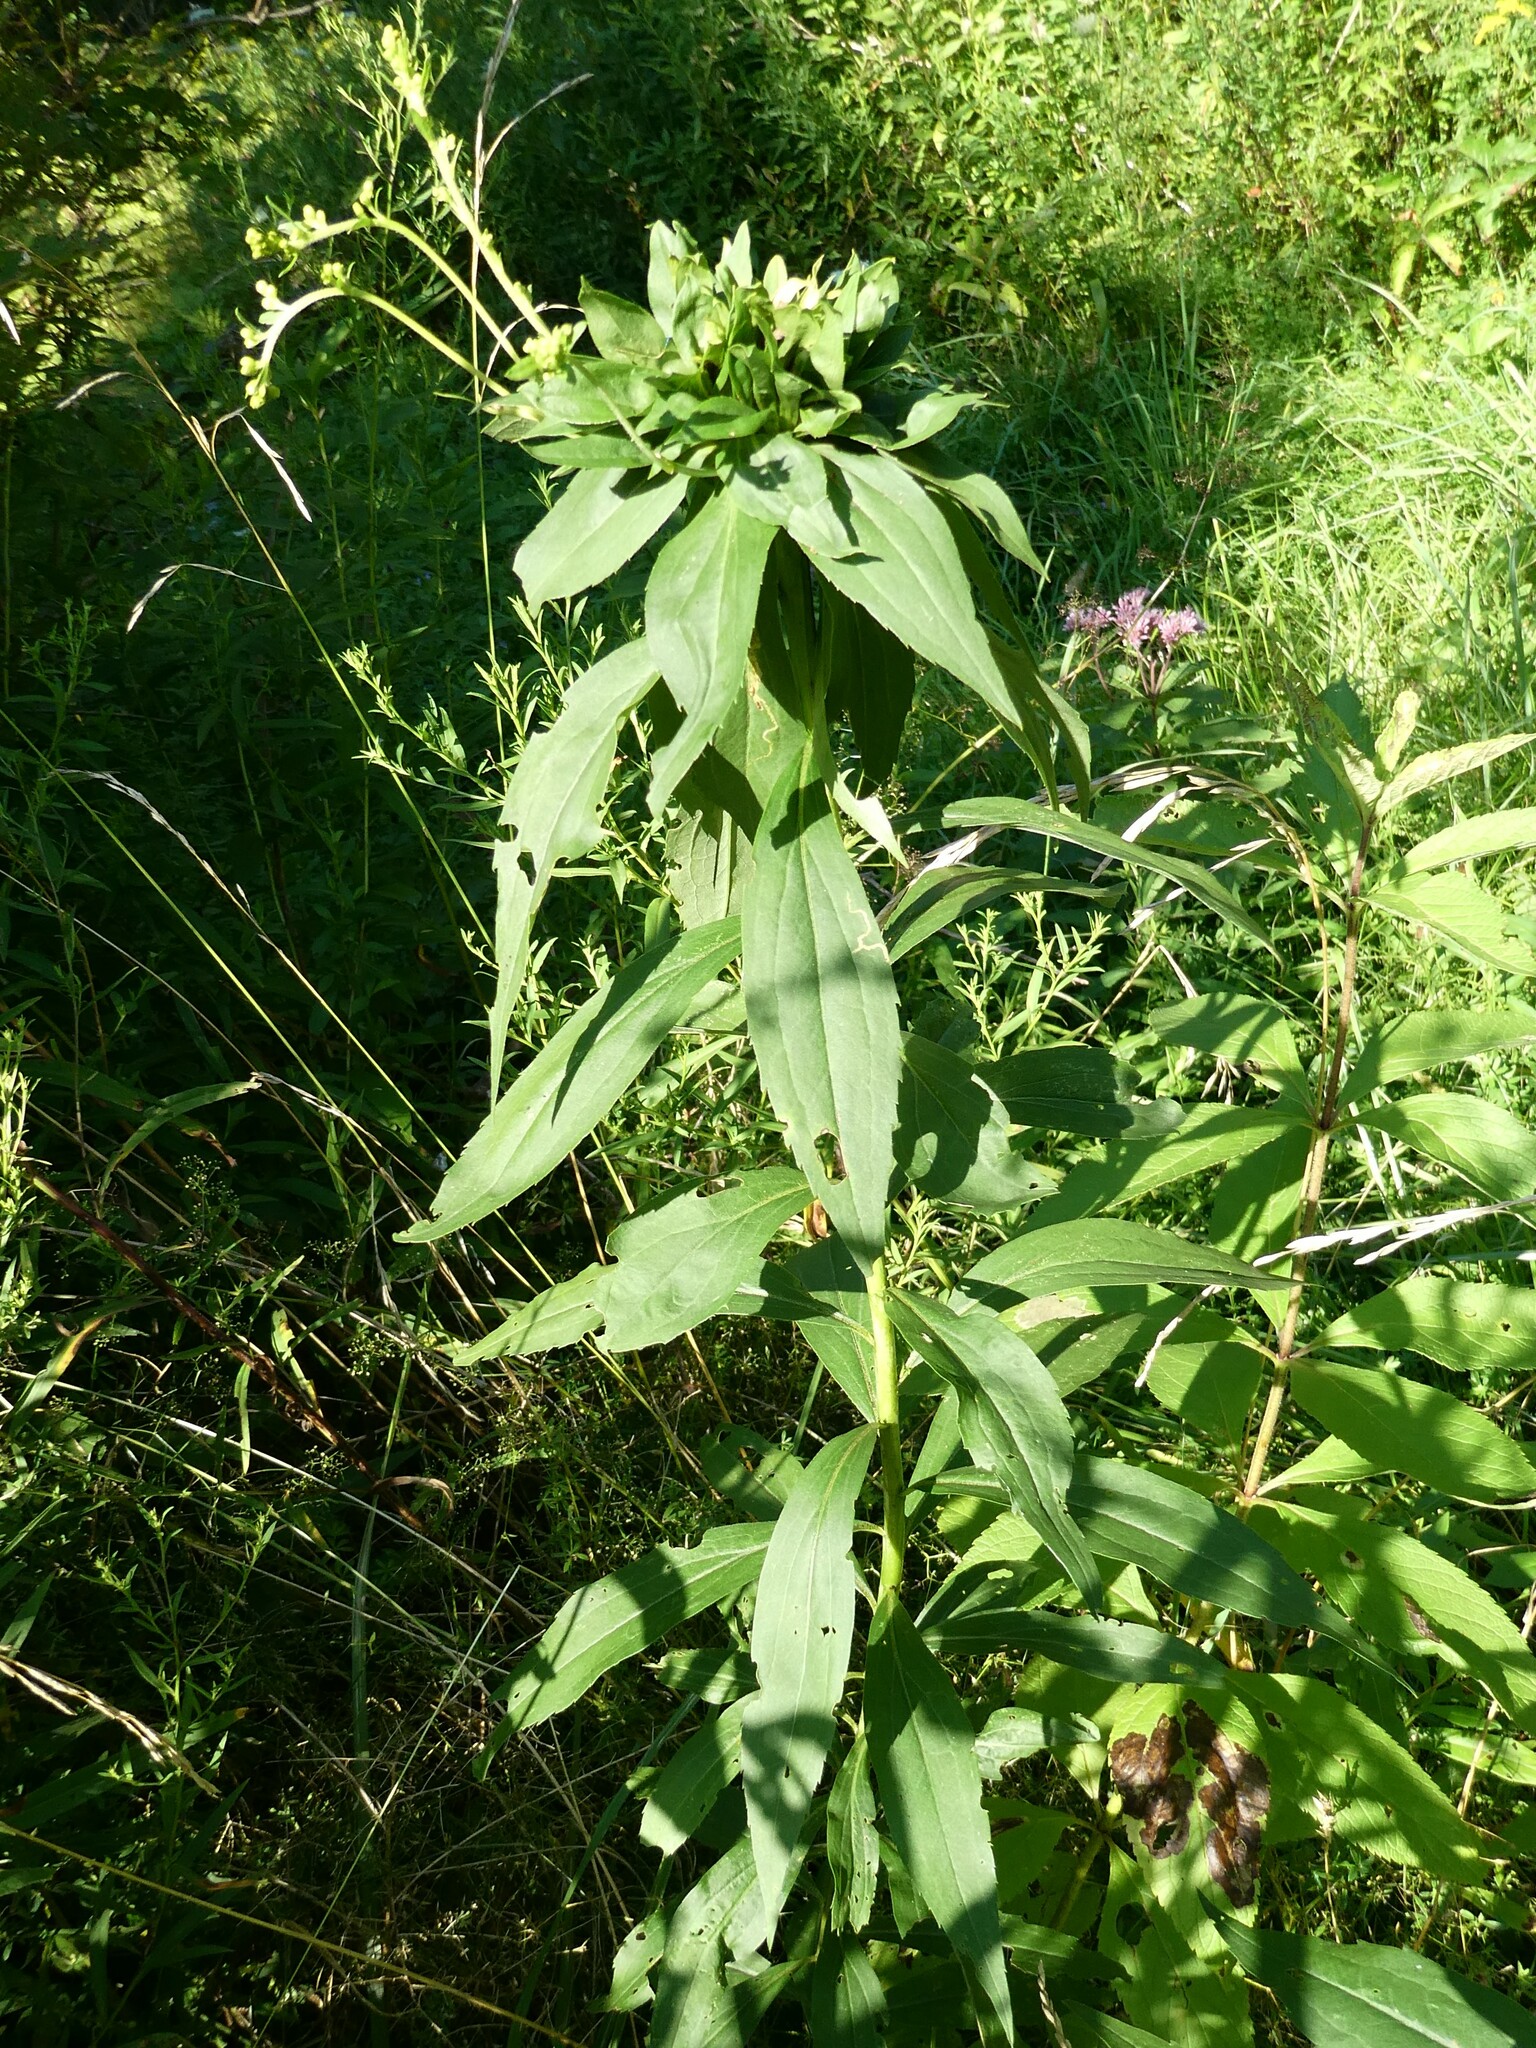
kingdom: Animalia
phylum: Arthropoda
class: Insecta
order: Diptera
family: Cecidomyiidae
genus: Rhopalomyia
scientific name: Rhopalomyia capitata
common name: Giant goldenrod bunch gall midge
